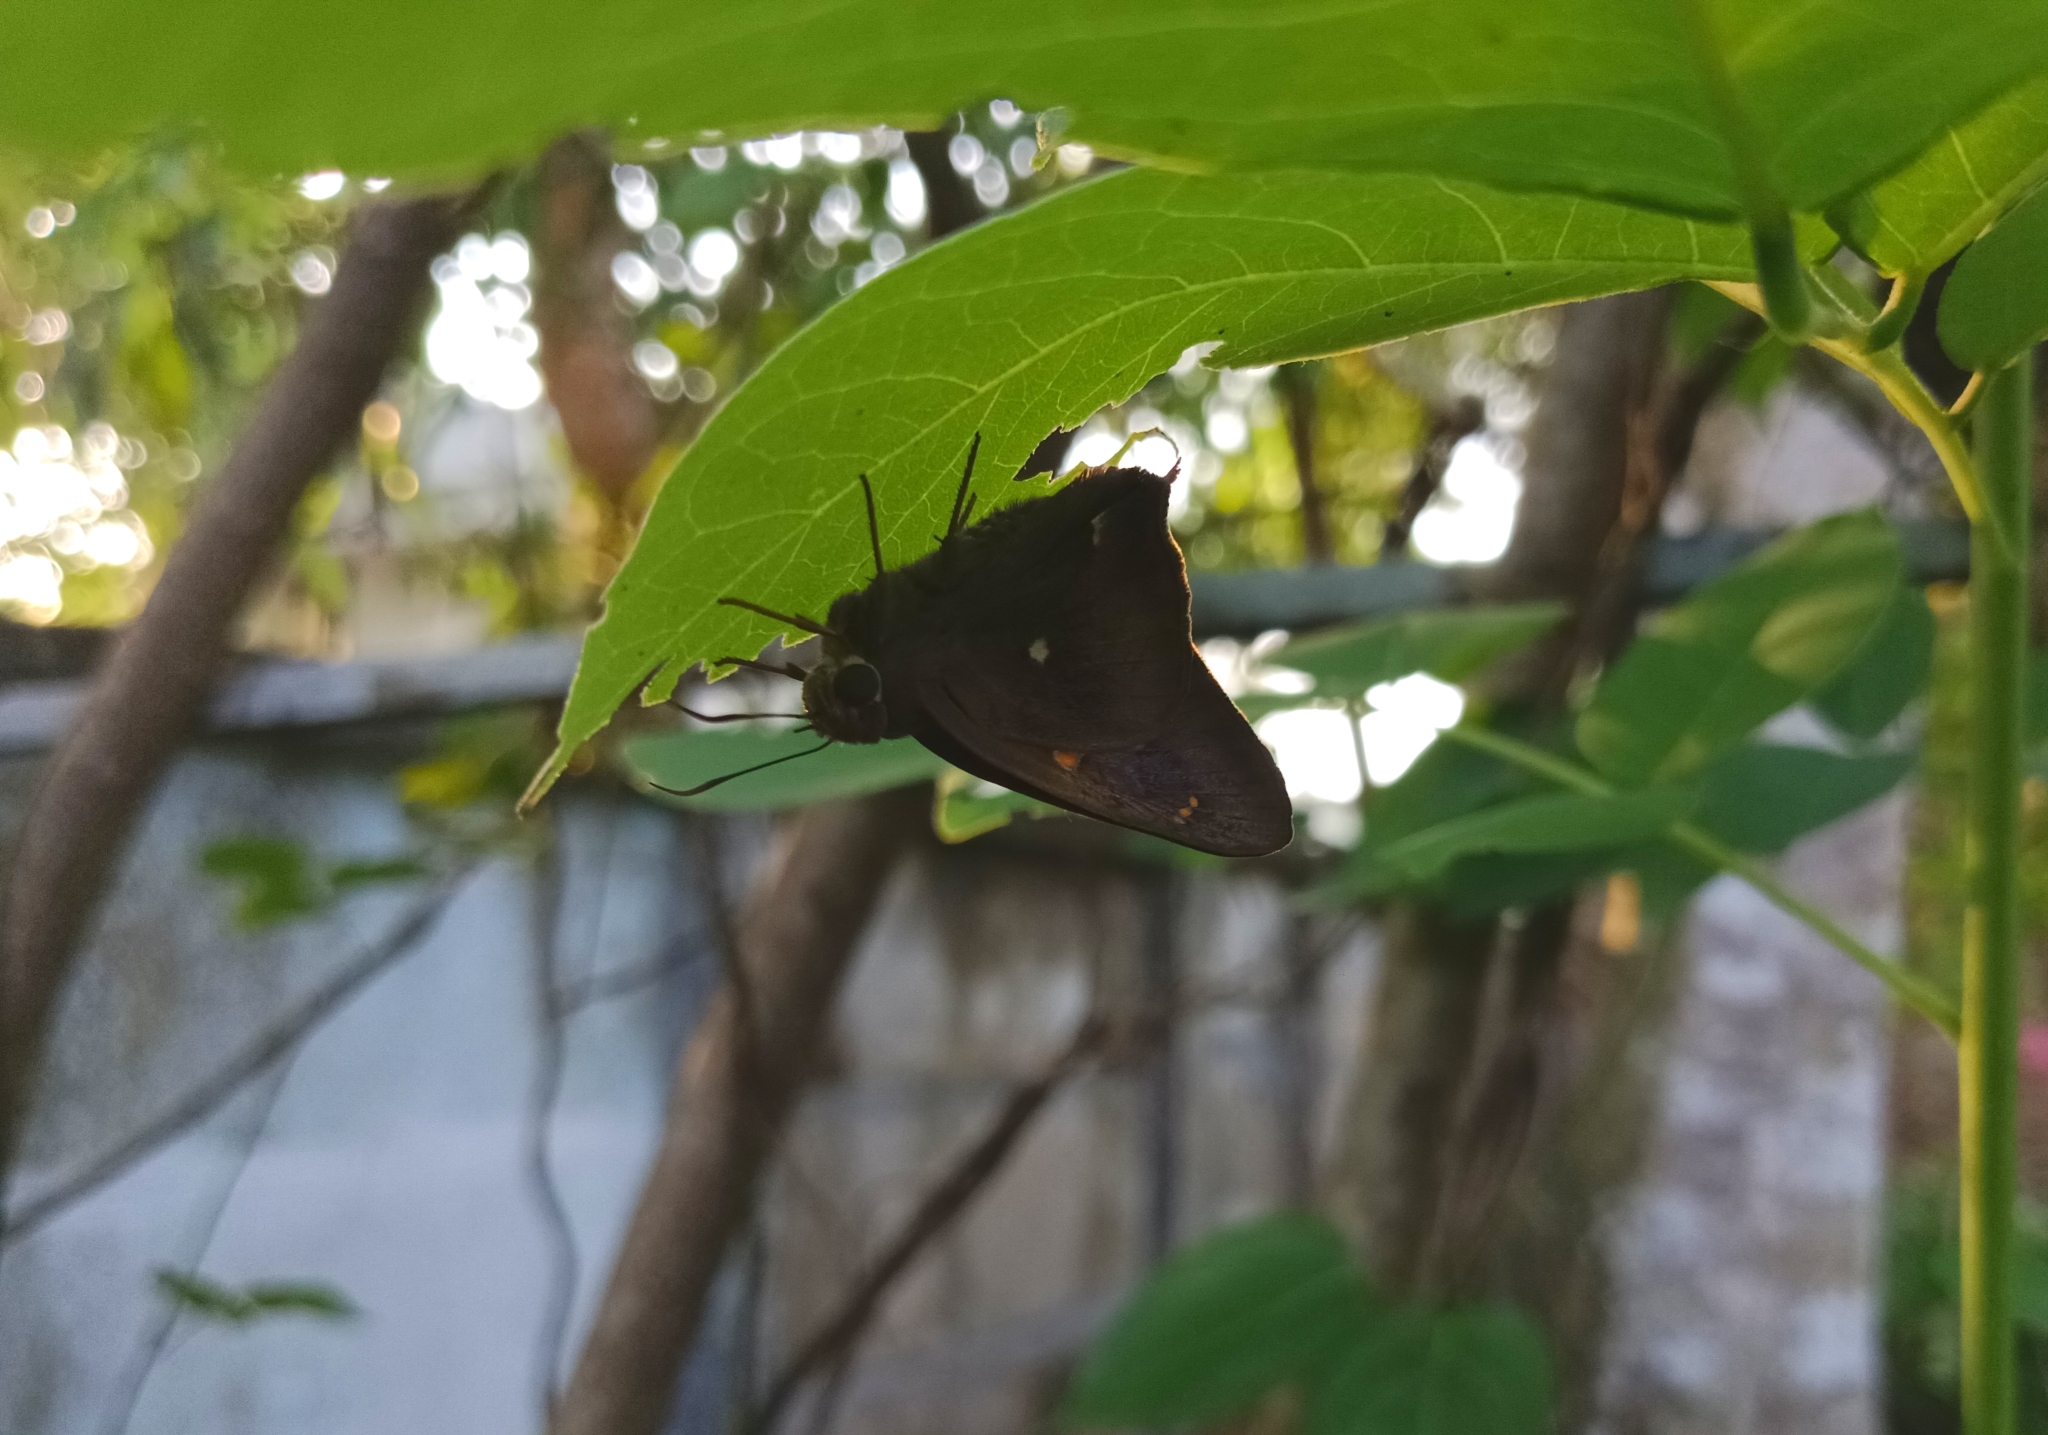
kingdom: Animalia
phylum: Arthropoda
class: Insecta
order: Lepidoptera
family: Hesperiidae
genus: Hasora
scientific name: Hasora badra
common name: Common awl
